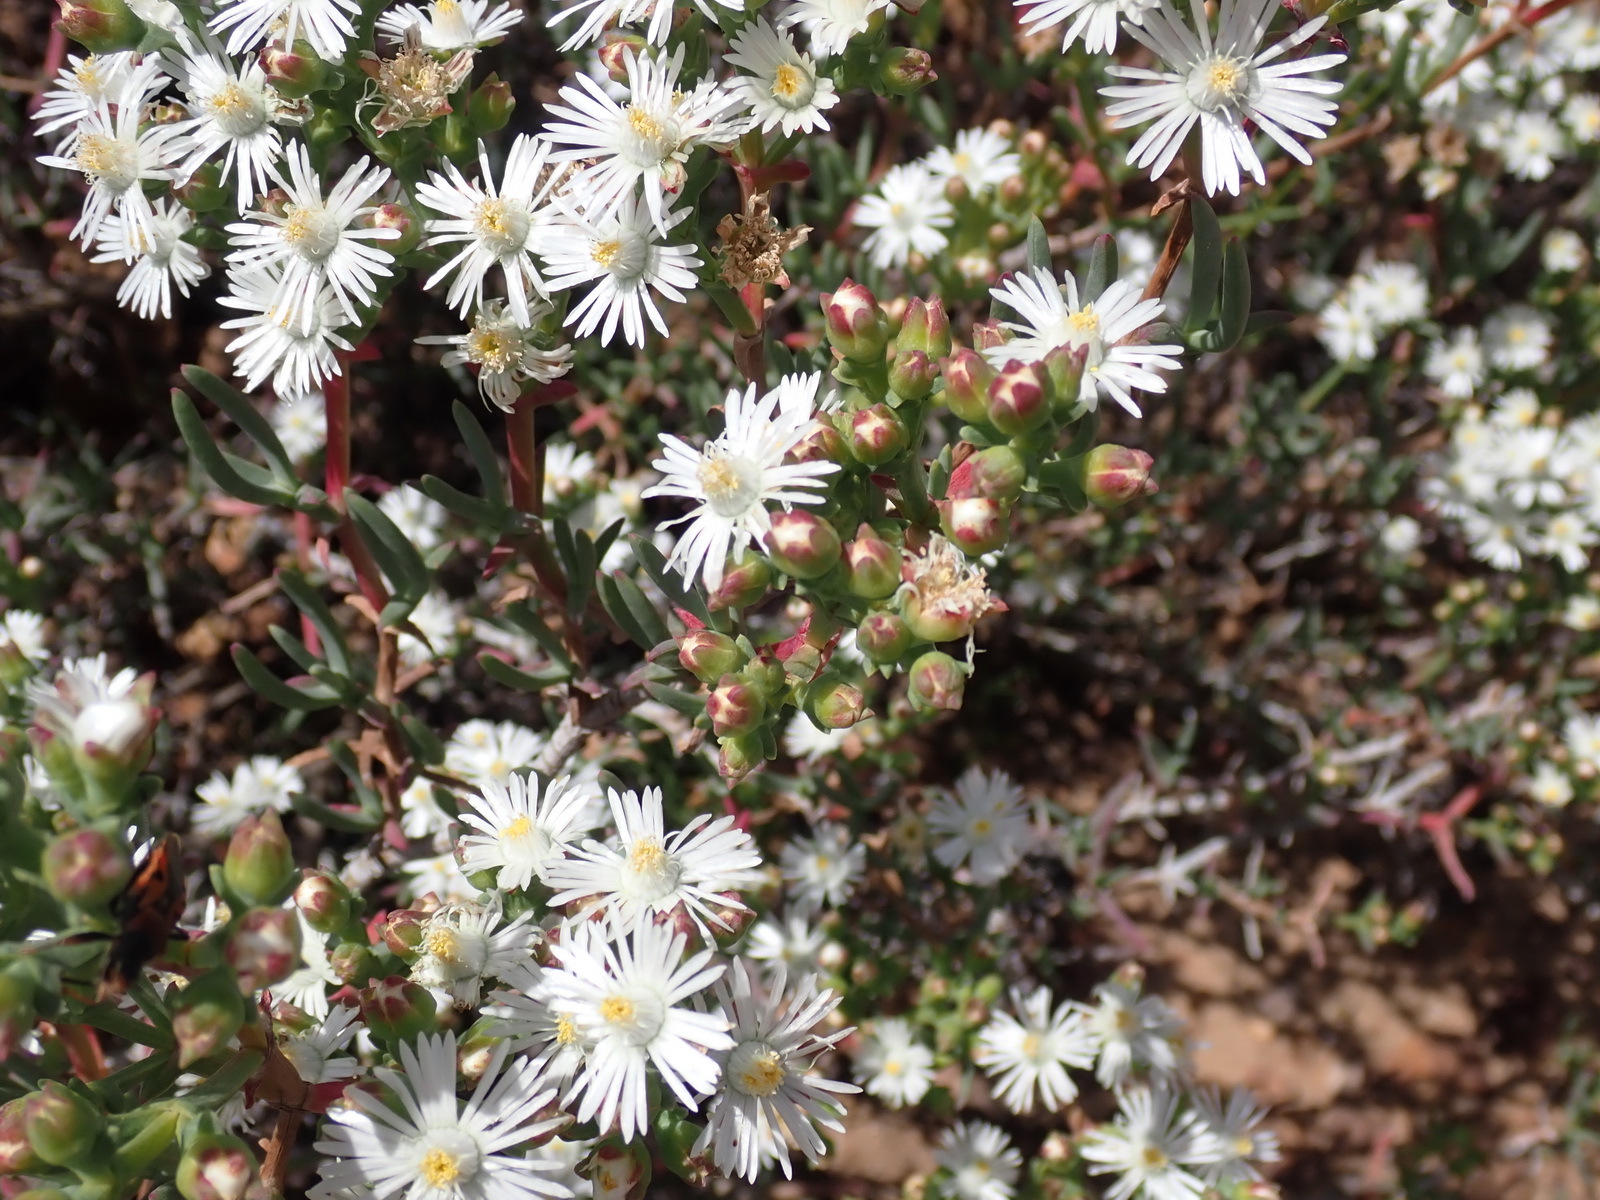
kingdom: Plantae
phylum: Tracheophyta
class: Magnoliopsida
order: Caryophyllales
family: Aizoaceae
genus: Ruschia
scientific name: Ruschia multiflora
